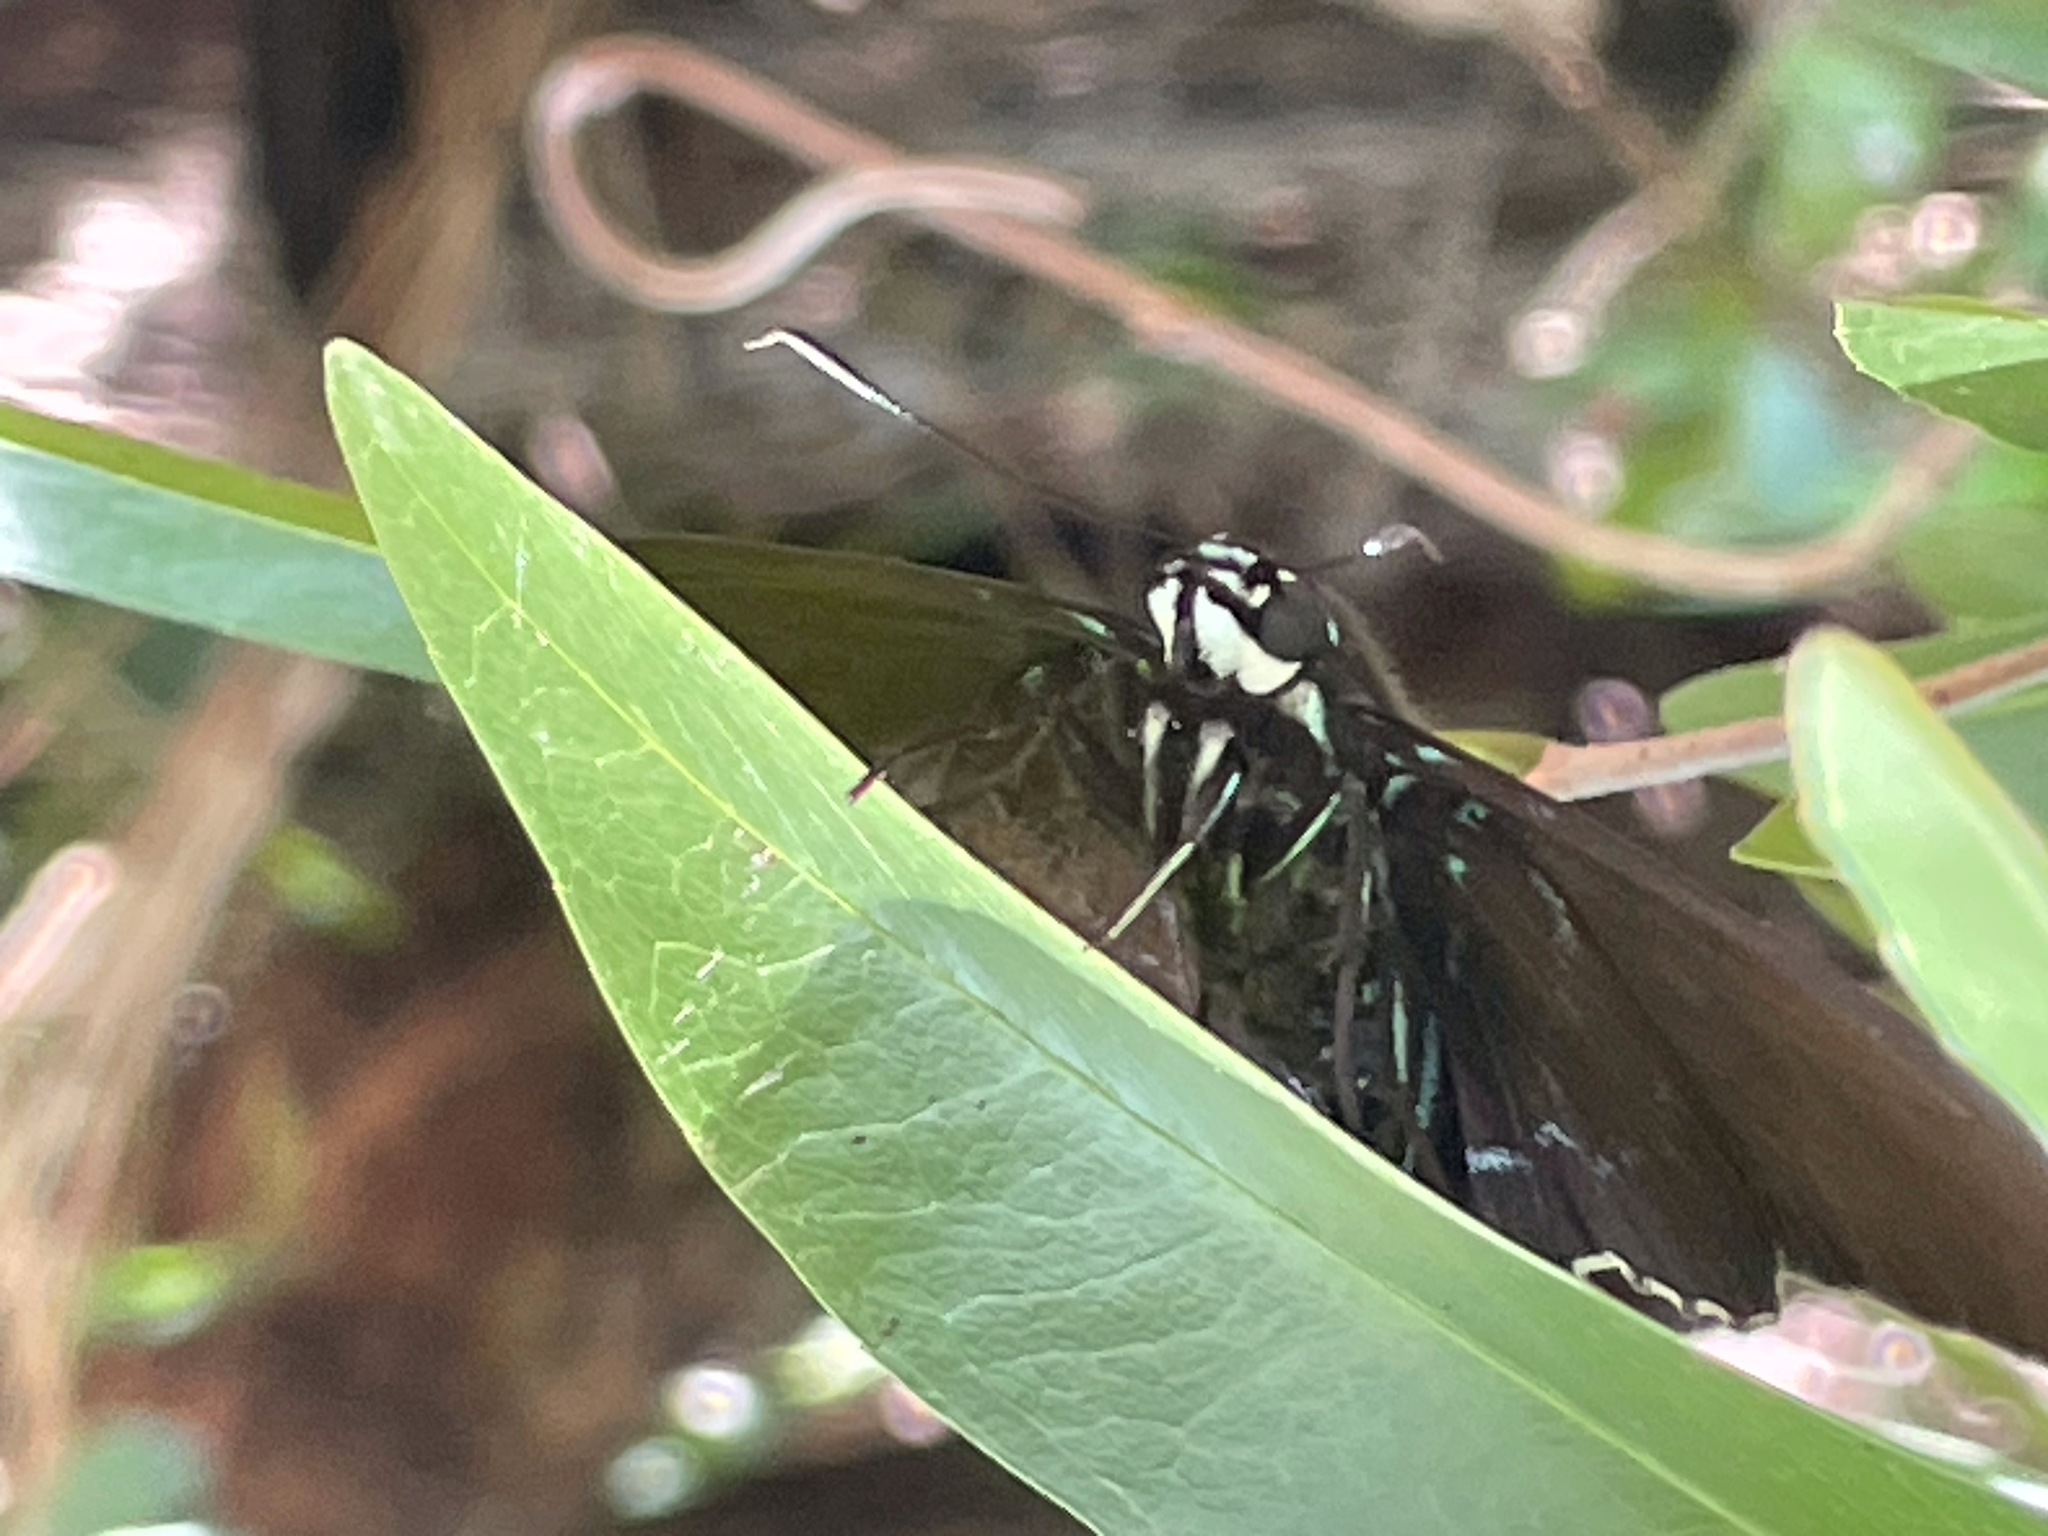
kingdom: Animalia
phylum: Arthropoda
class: Insecta
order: Lepidoptera
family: Hesperiidae
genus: Phocides
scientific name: Phocides pigmalion
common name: Mangrove skipper
